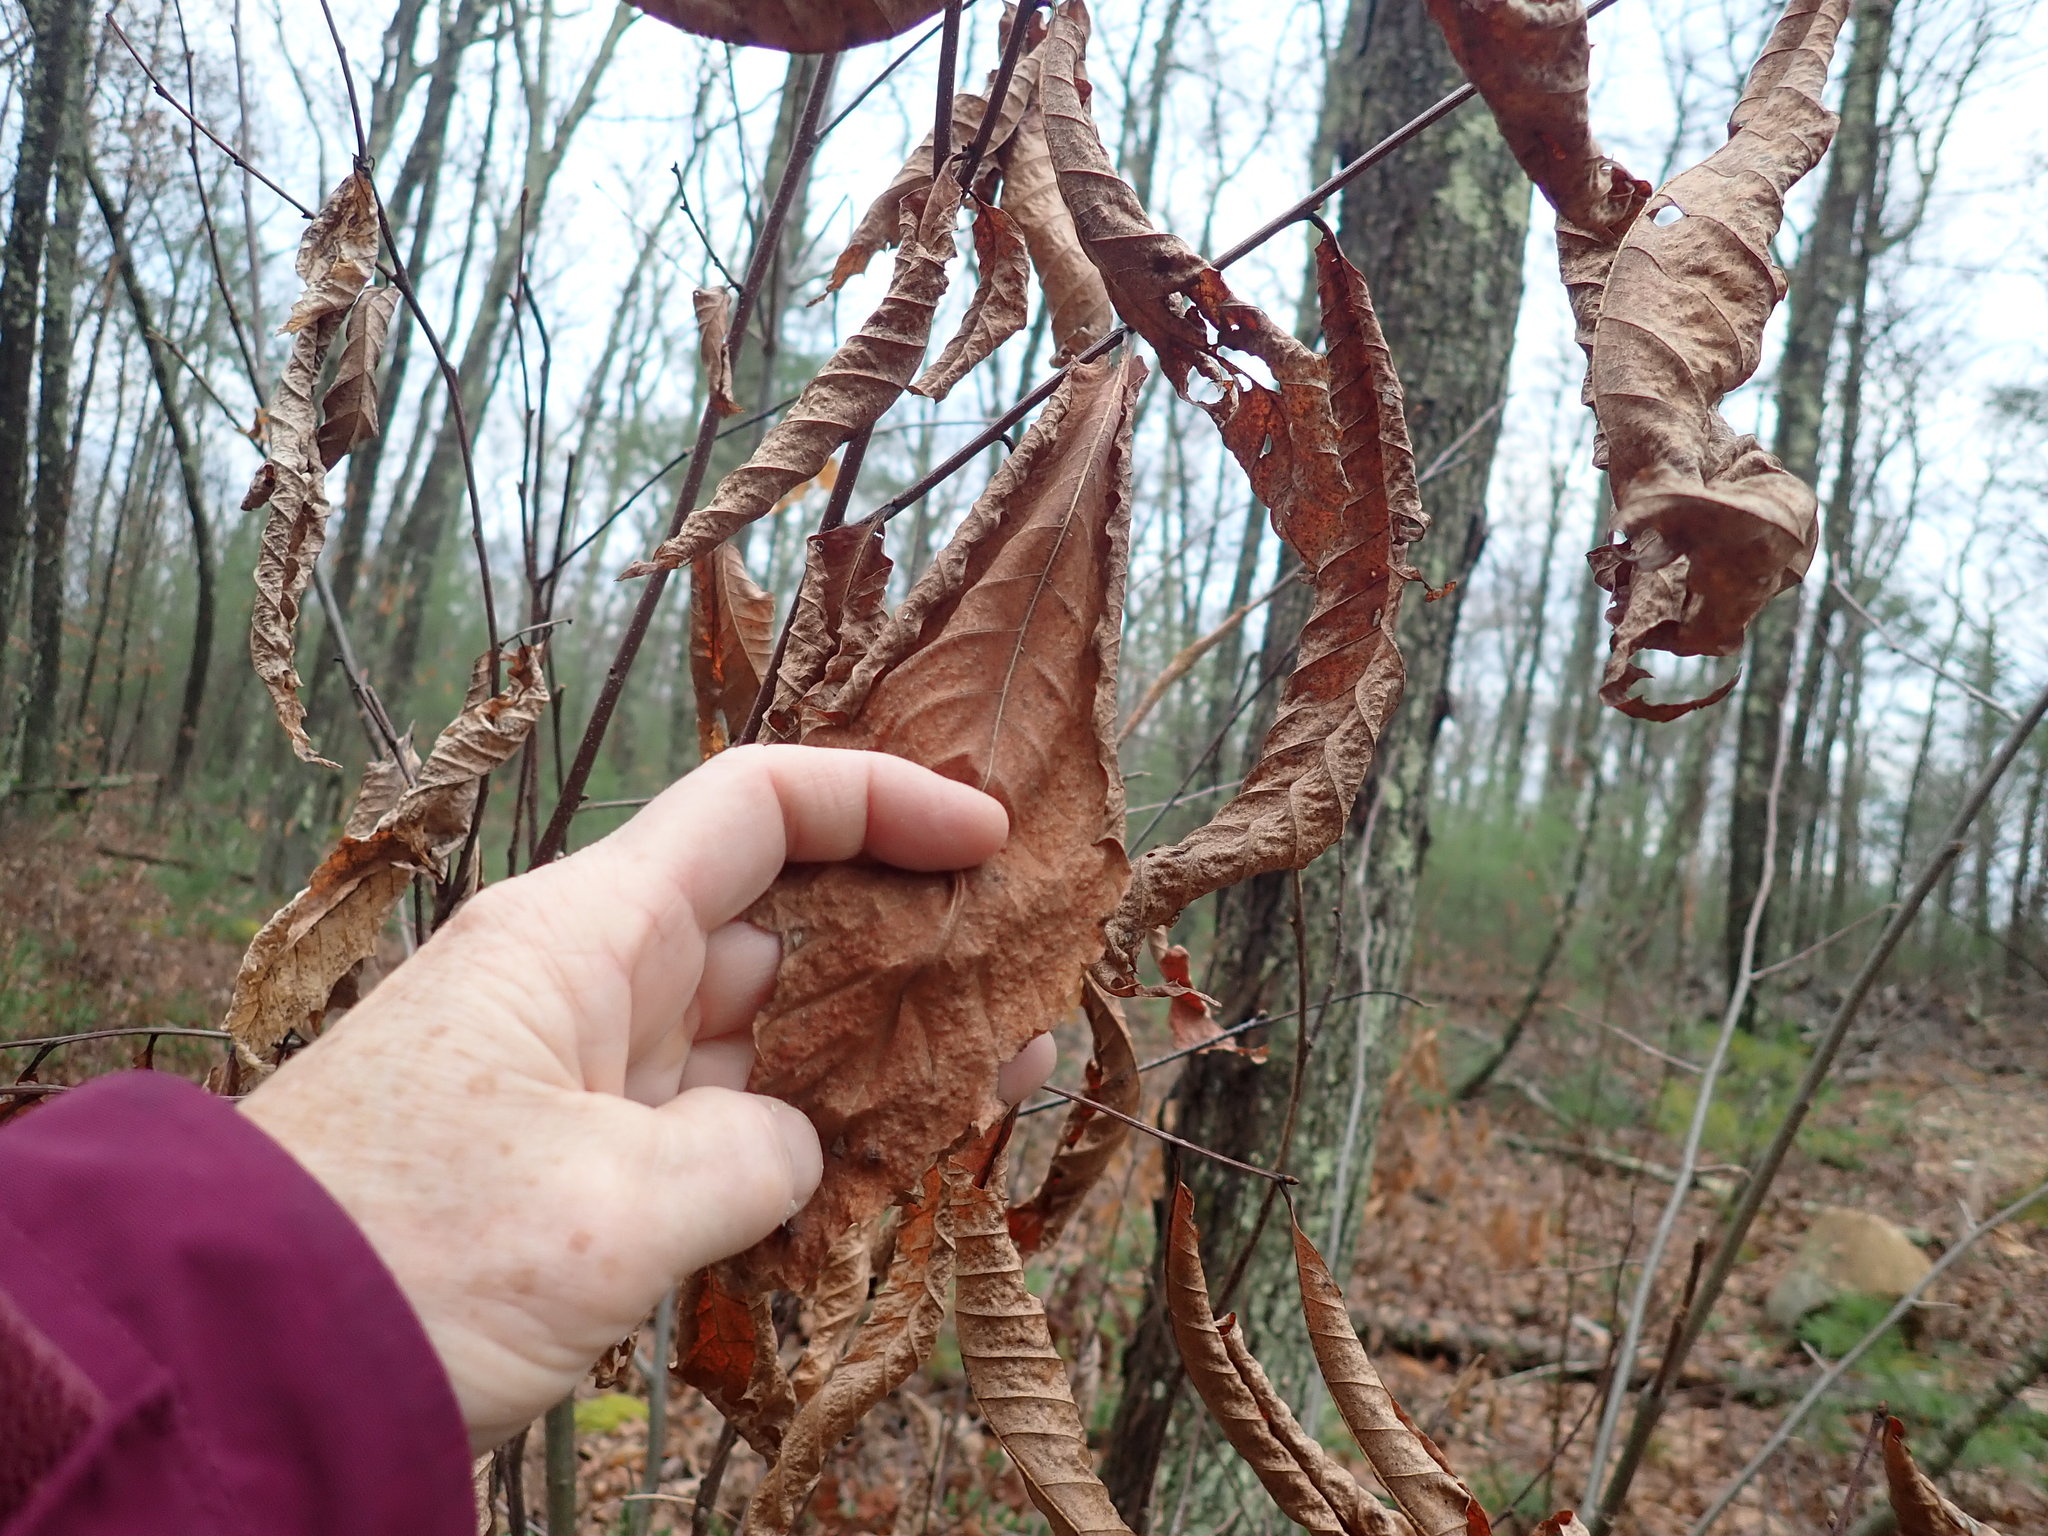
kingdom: Plantae
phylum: Tracheophyta
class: Magnoliopsida
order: Fagales
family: Fagaceae
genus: Castanea
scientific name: Castanea dentata
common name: American chestnut
